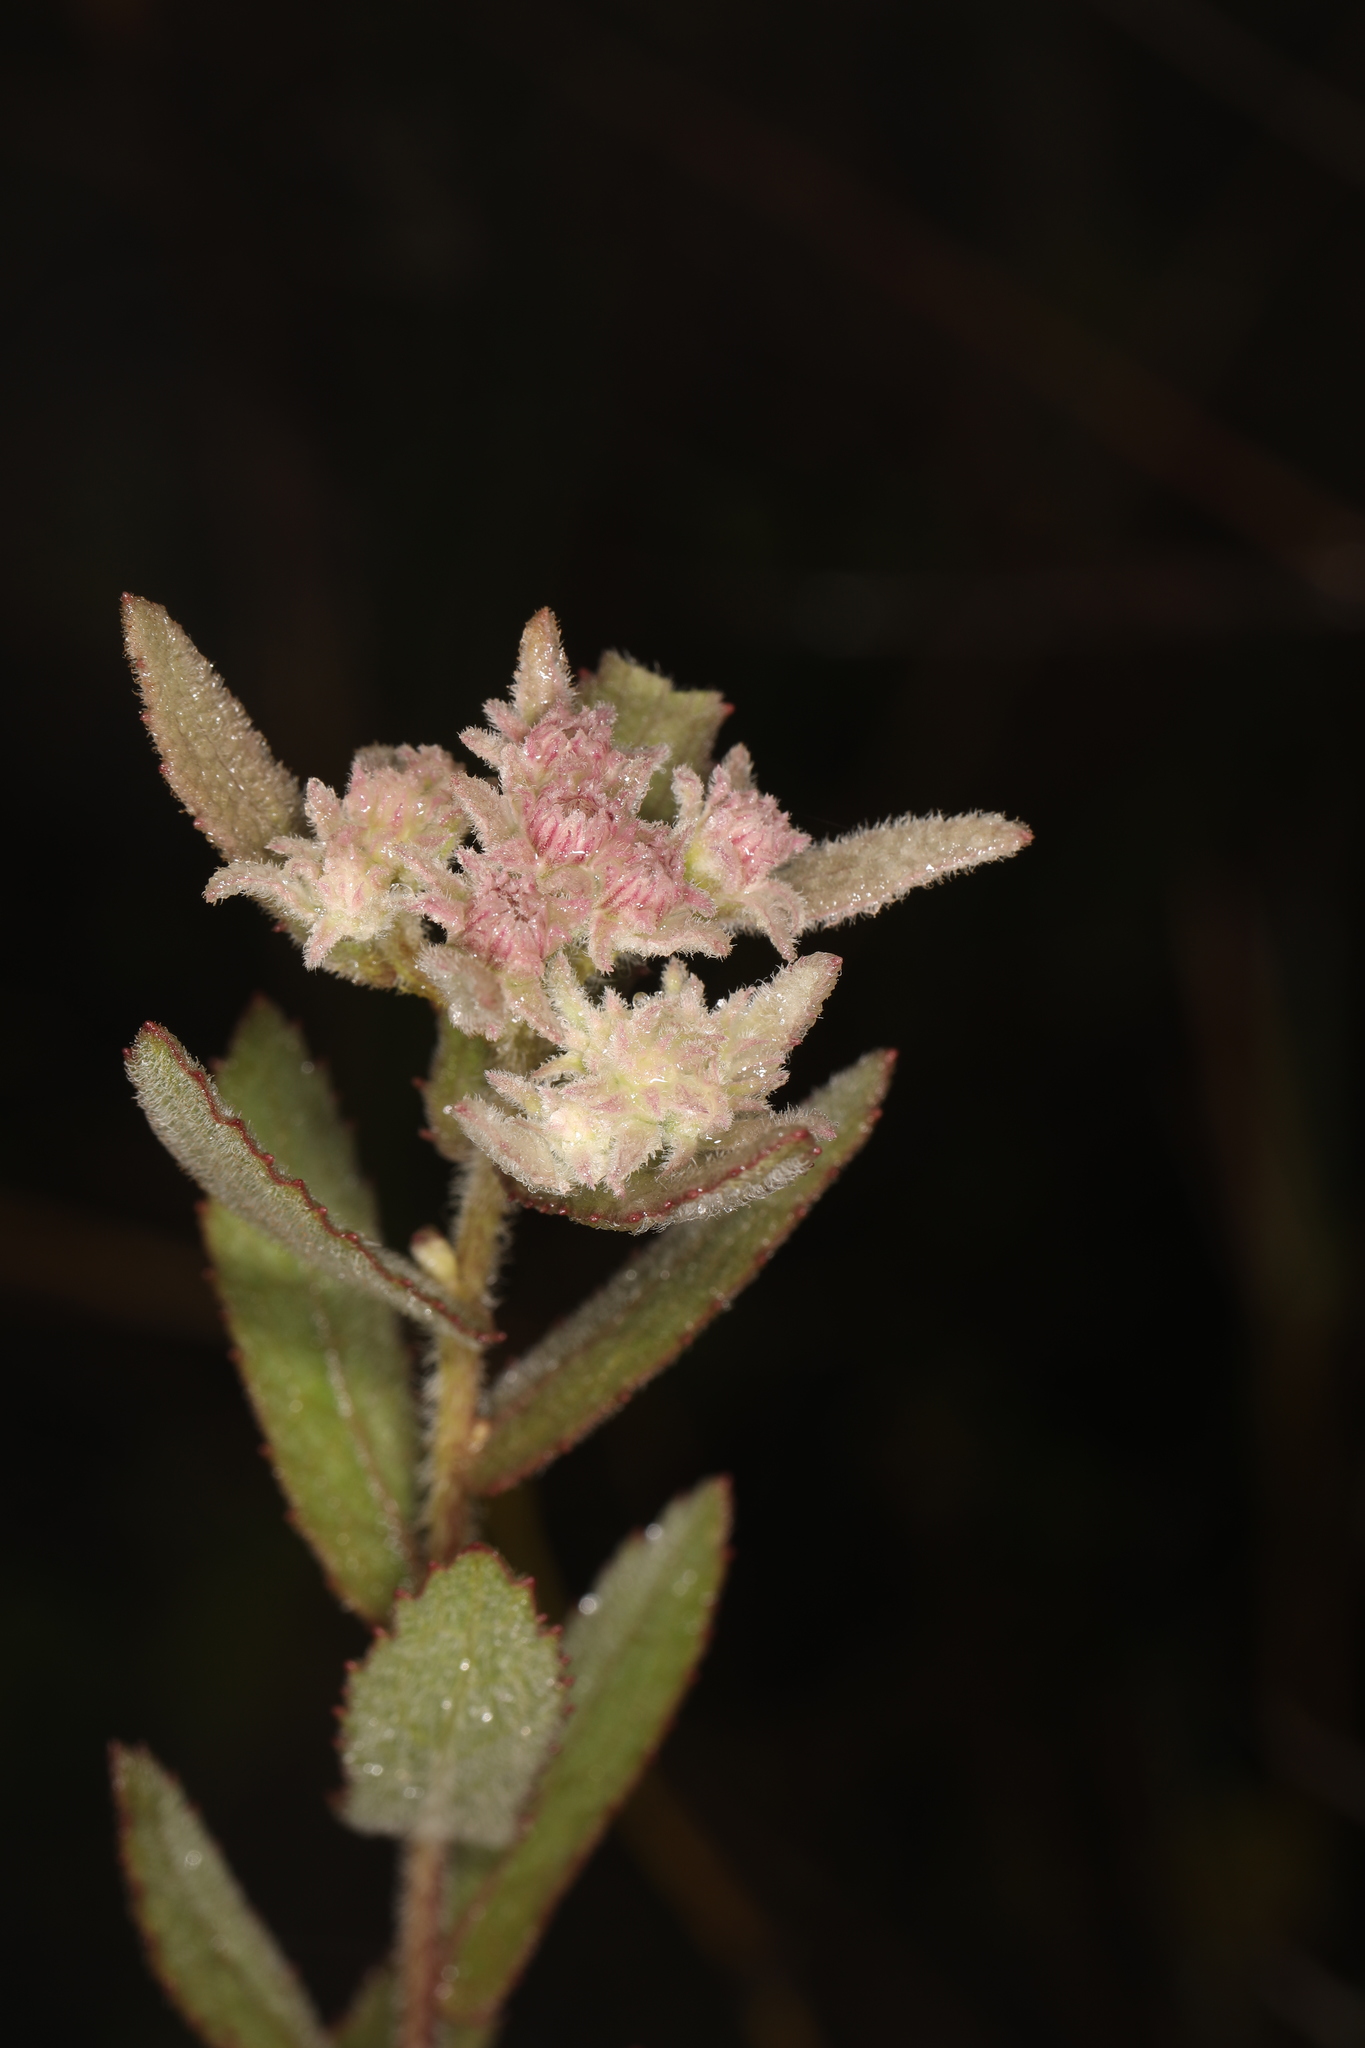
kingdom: Plantae
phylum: Tracheophyta
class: Magnoliopsida
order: Asterales
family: Asteraceae
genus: Pluchea
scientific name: Pluchea baccharis
